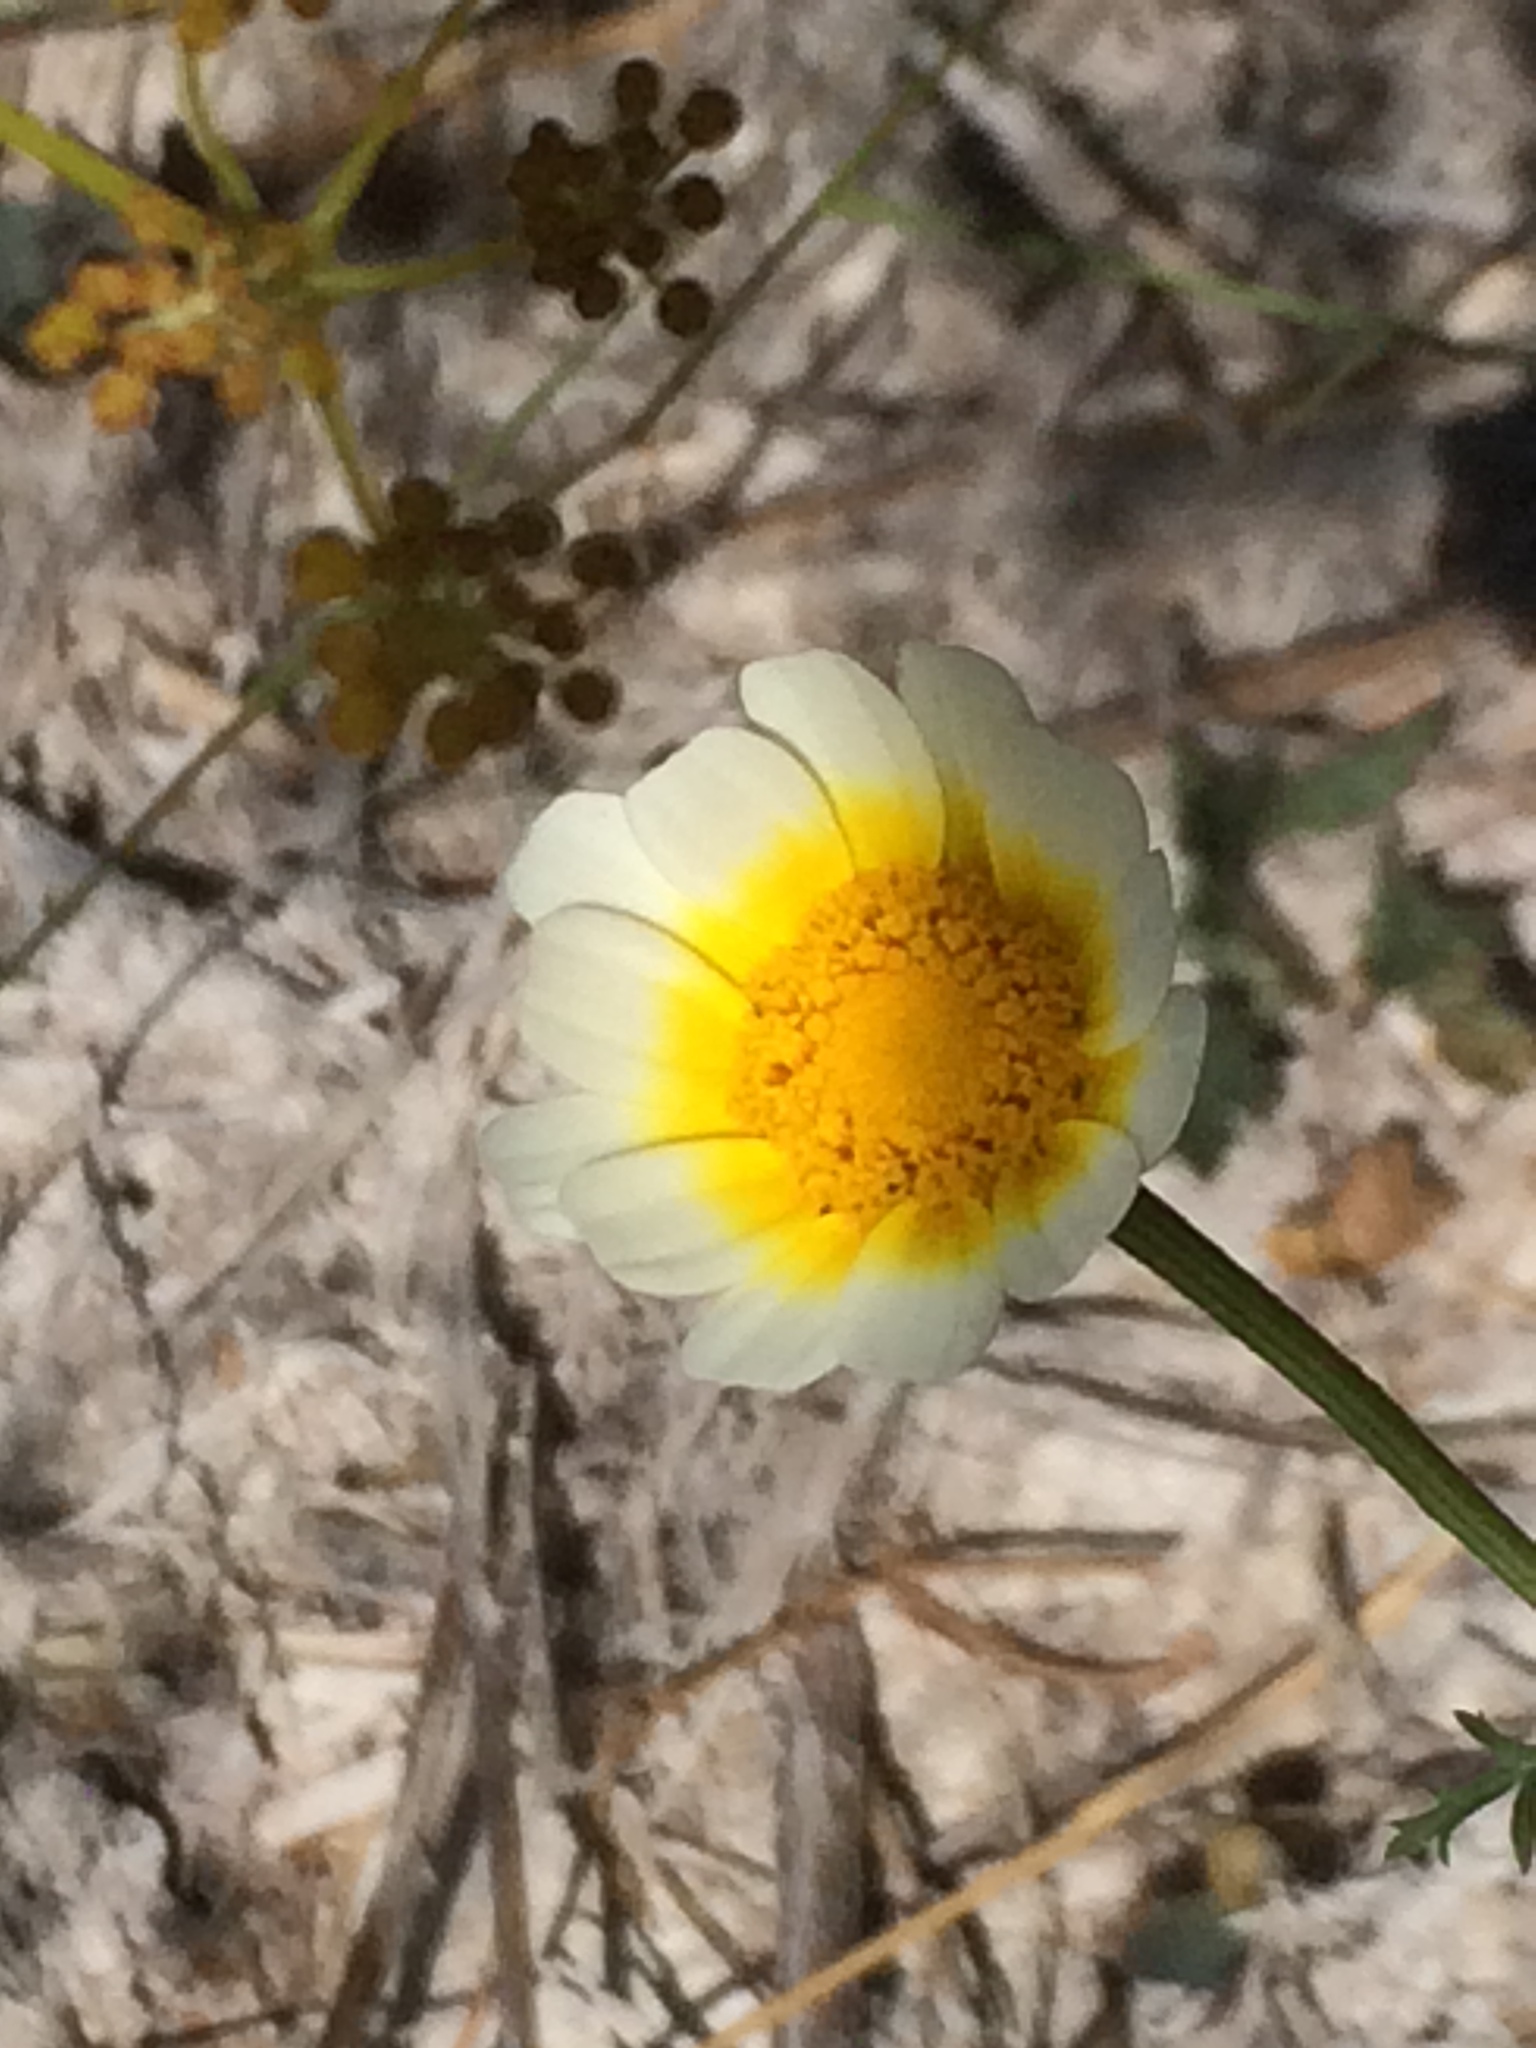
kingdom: Plantae
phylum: Tracheophyta
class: Magnoliopsida
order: Asterales
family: Asteraceae
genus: Glebionis
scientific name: Glebionis coronaria
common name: Crowndaisy
